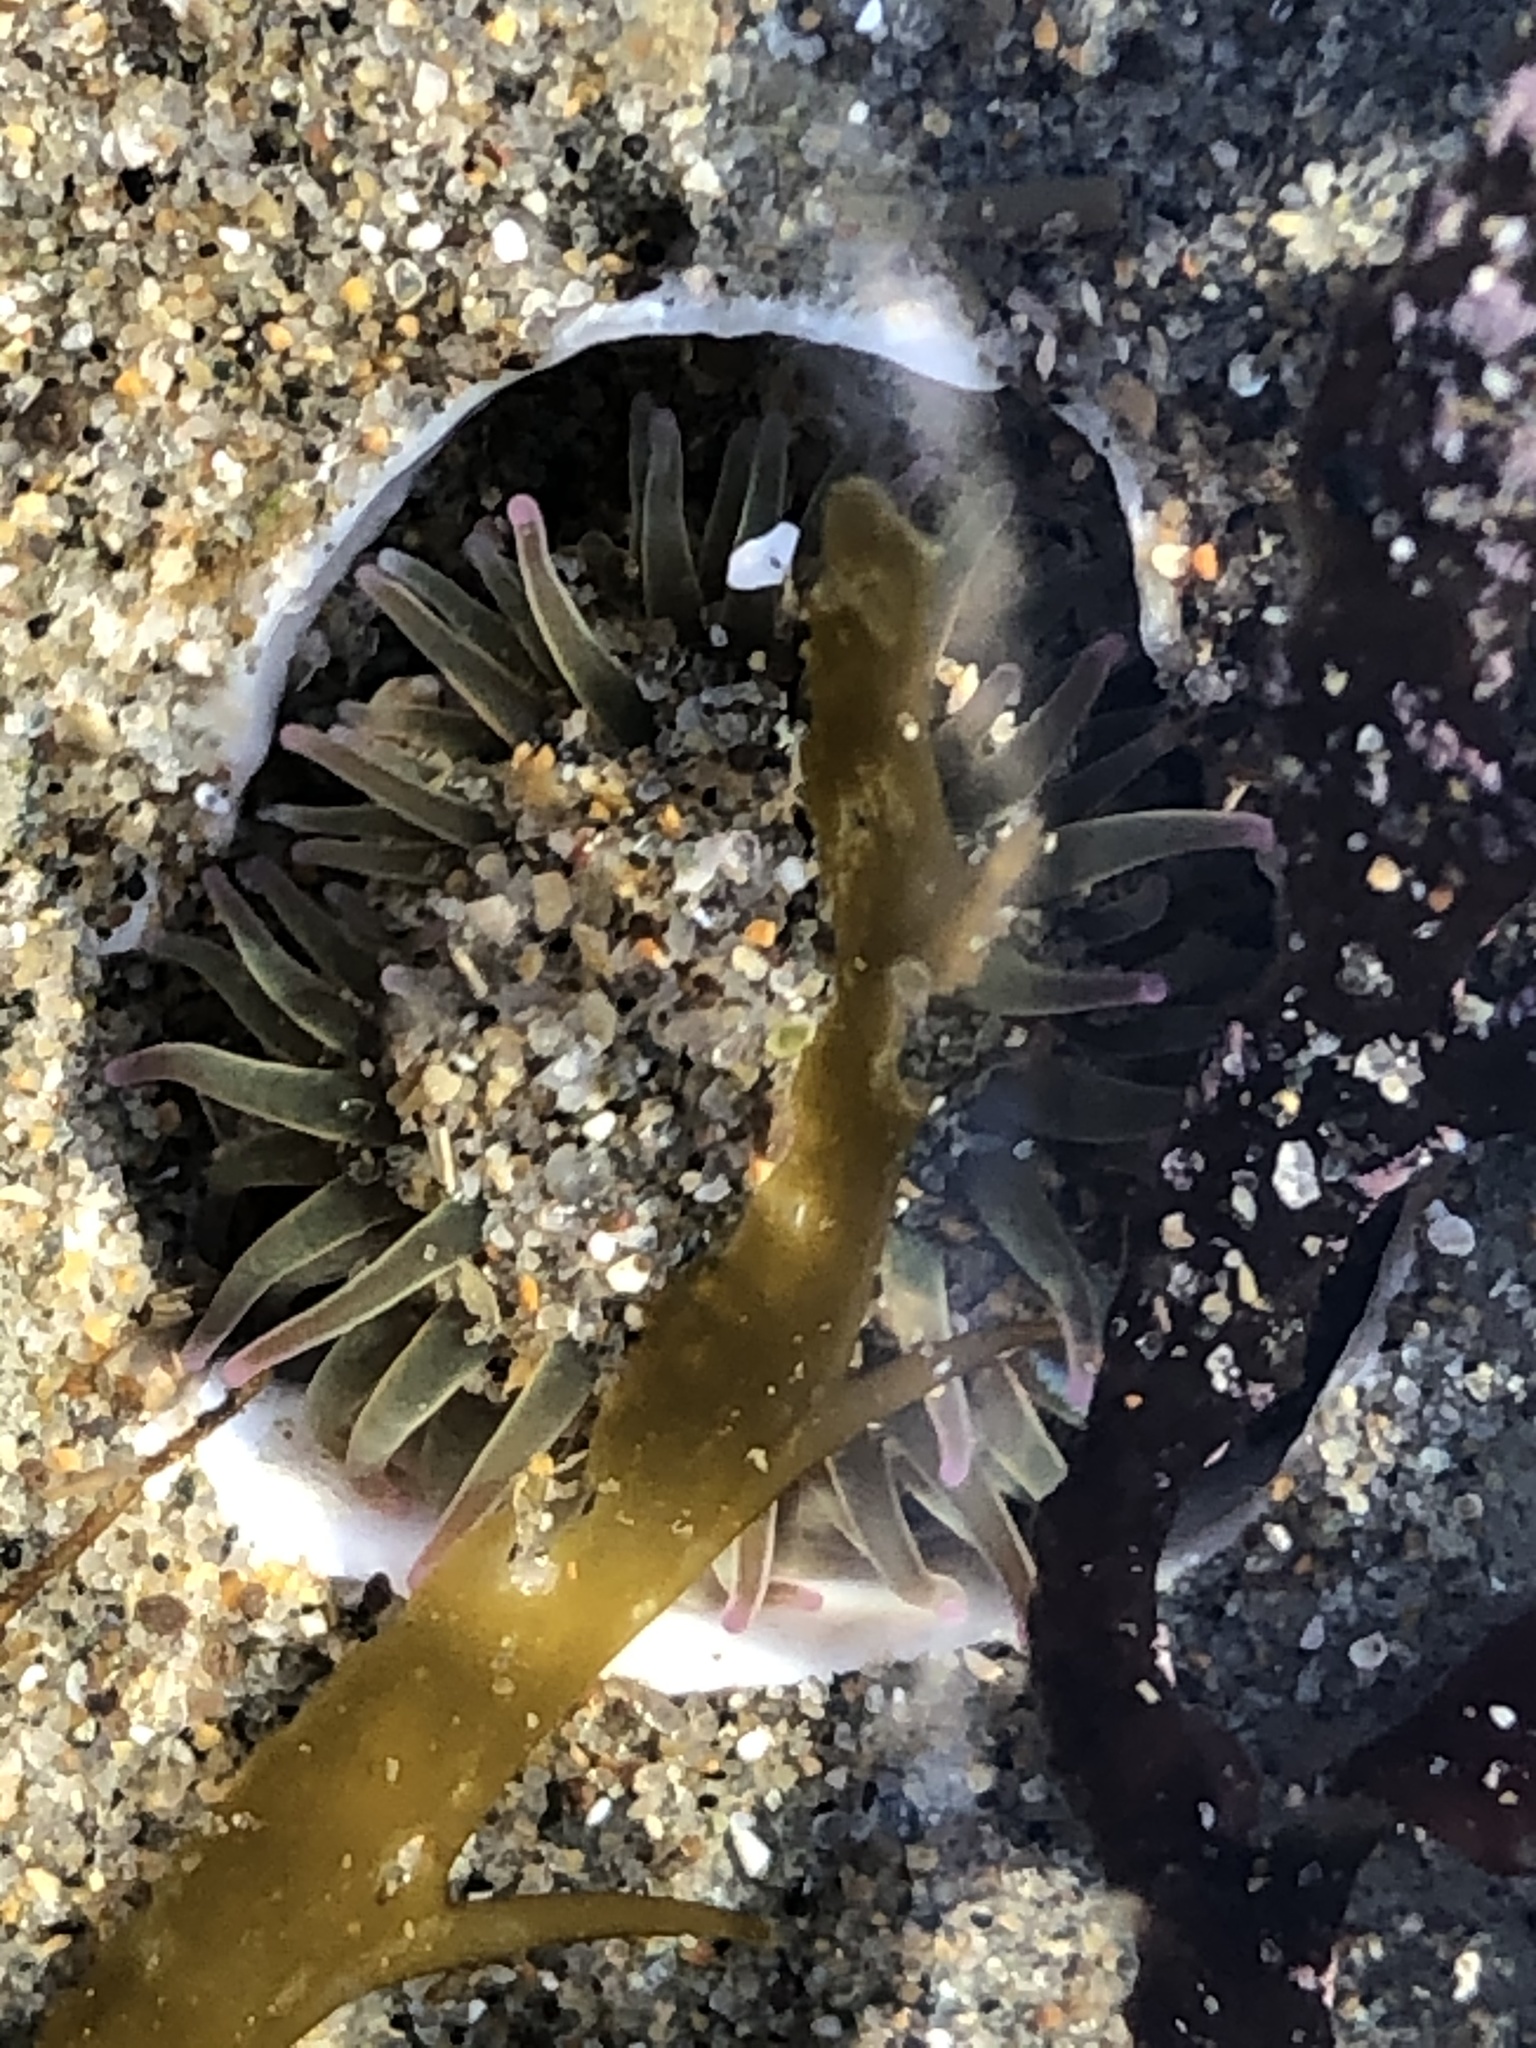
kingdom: Animalia
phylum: Cnidaria
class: Anthozoa
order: Actiniaria
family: Actiniidae
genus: Anthopleura
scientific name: Anthopleura elegantissima
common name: Clonal anemone
